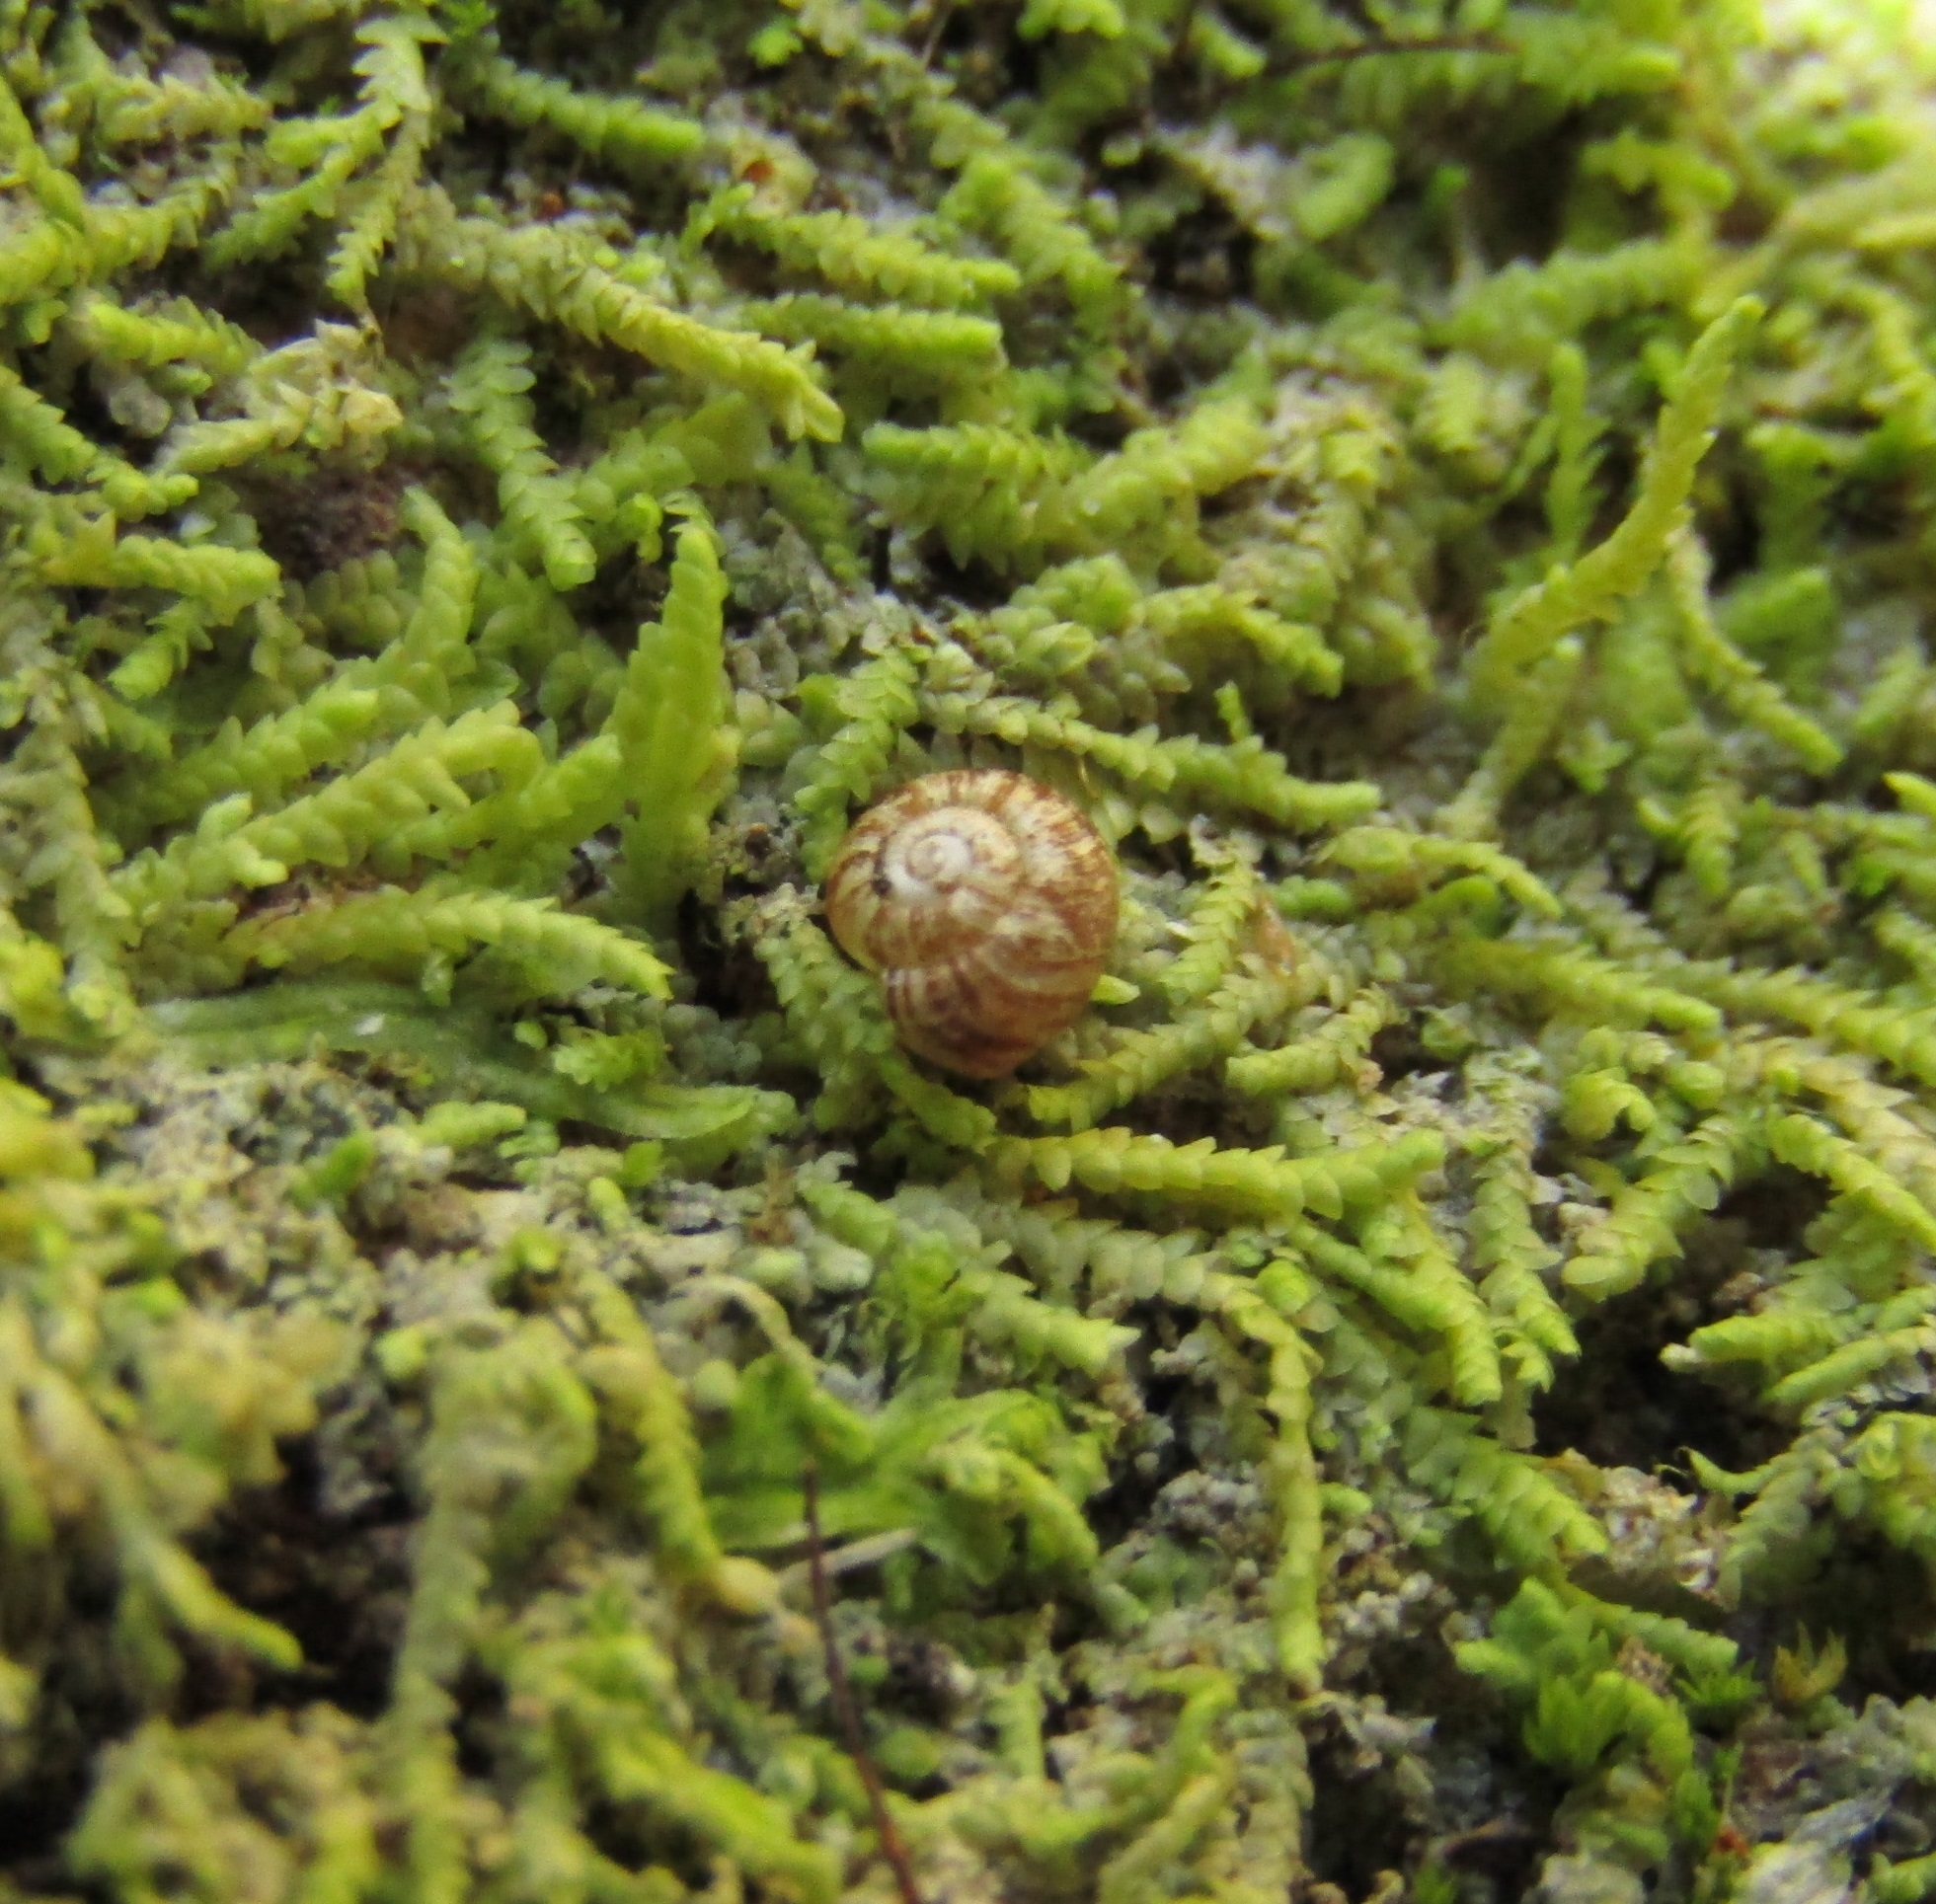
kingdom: Animalia
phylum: Mollusca
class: Gastropoda
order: Stylommatophora
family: Rhytididae
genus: Delos
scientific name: Delos coresia
